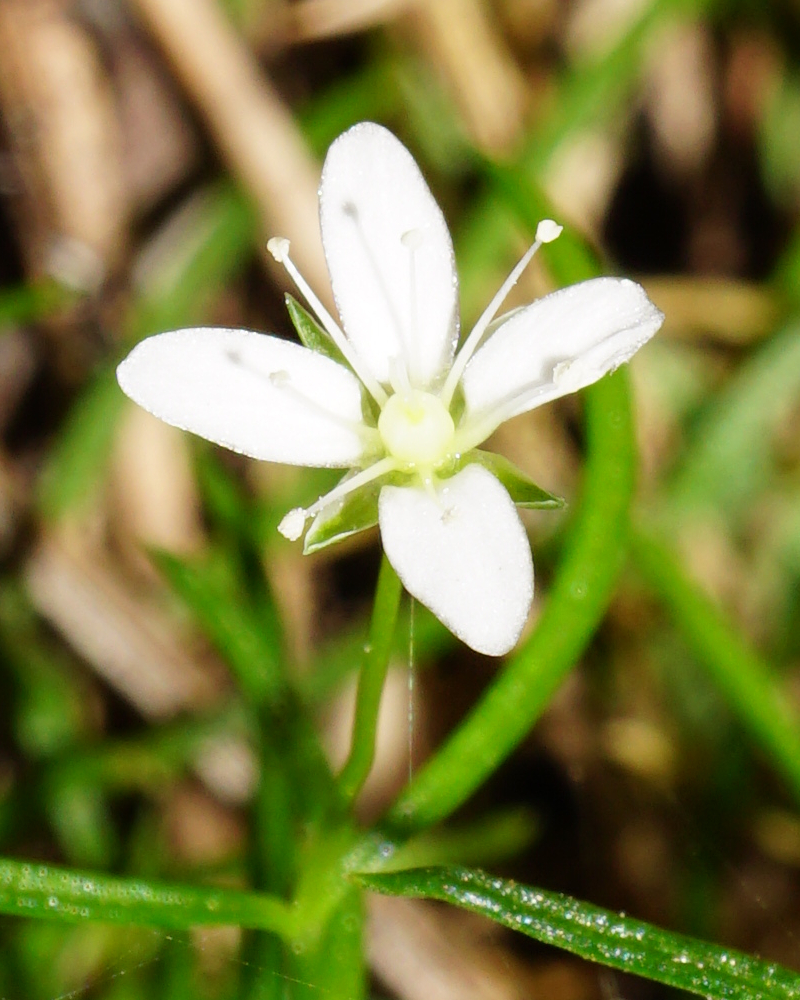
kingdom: Plantae
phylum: Tracheophyta
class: Magnoliopsida
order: Caryophyllales
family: Caryophyllaceae
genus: Moehringia
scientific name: Moehringia muscosa
